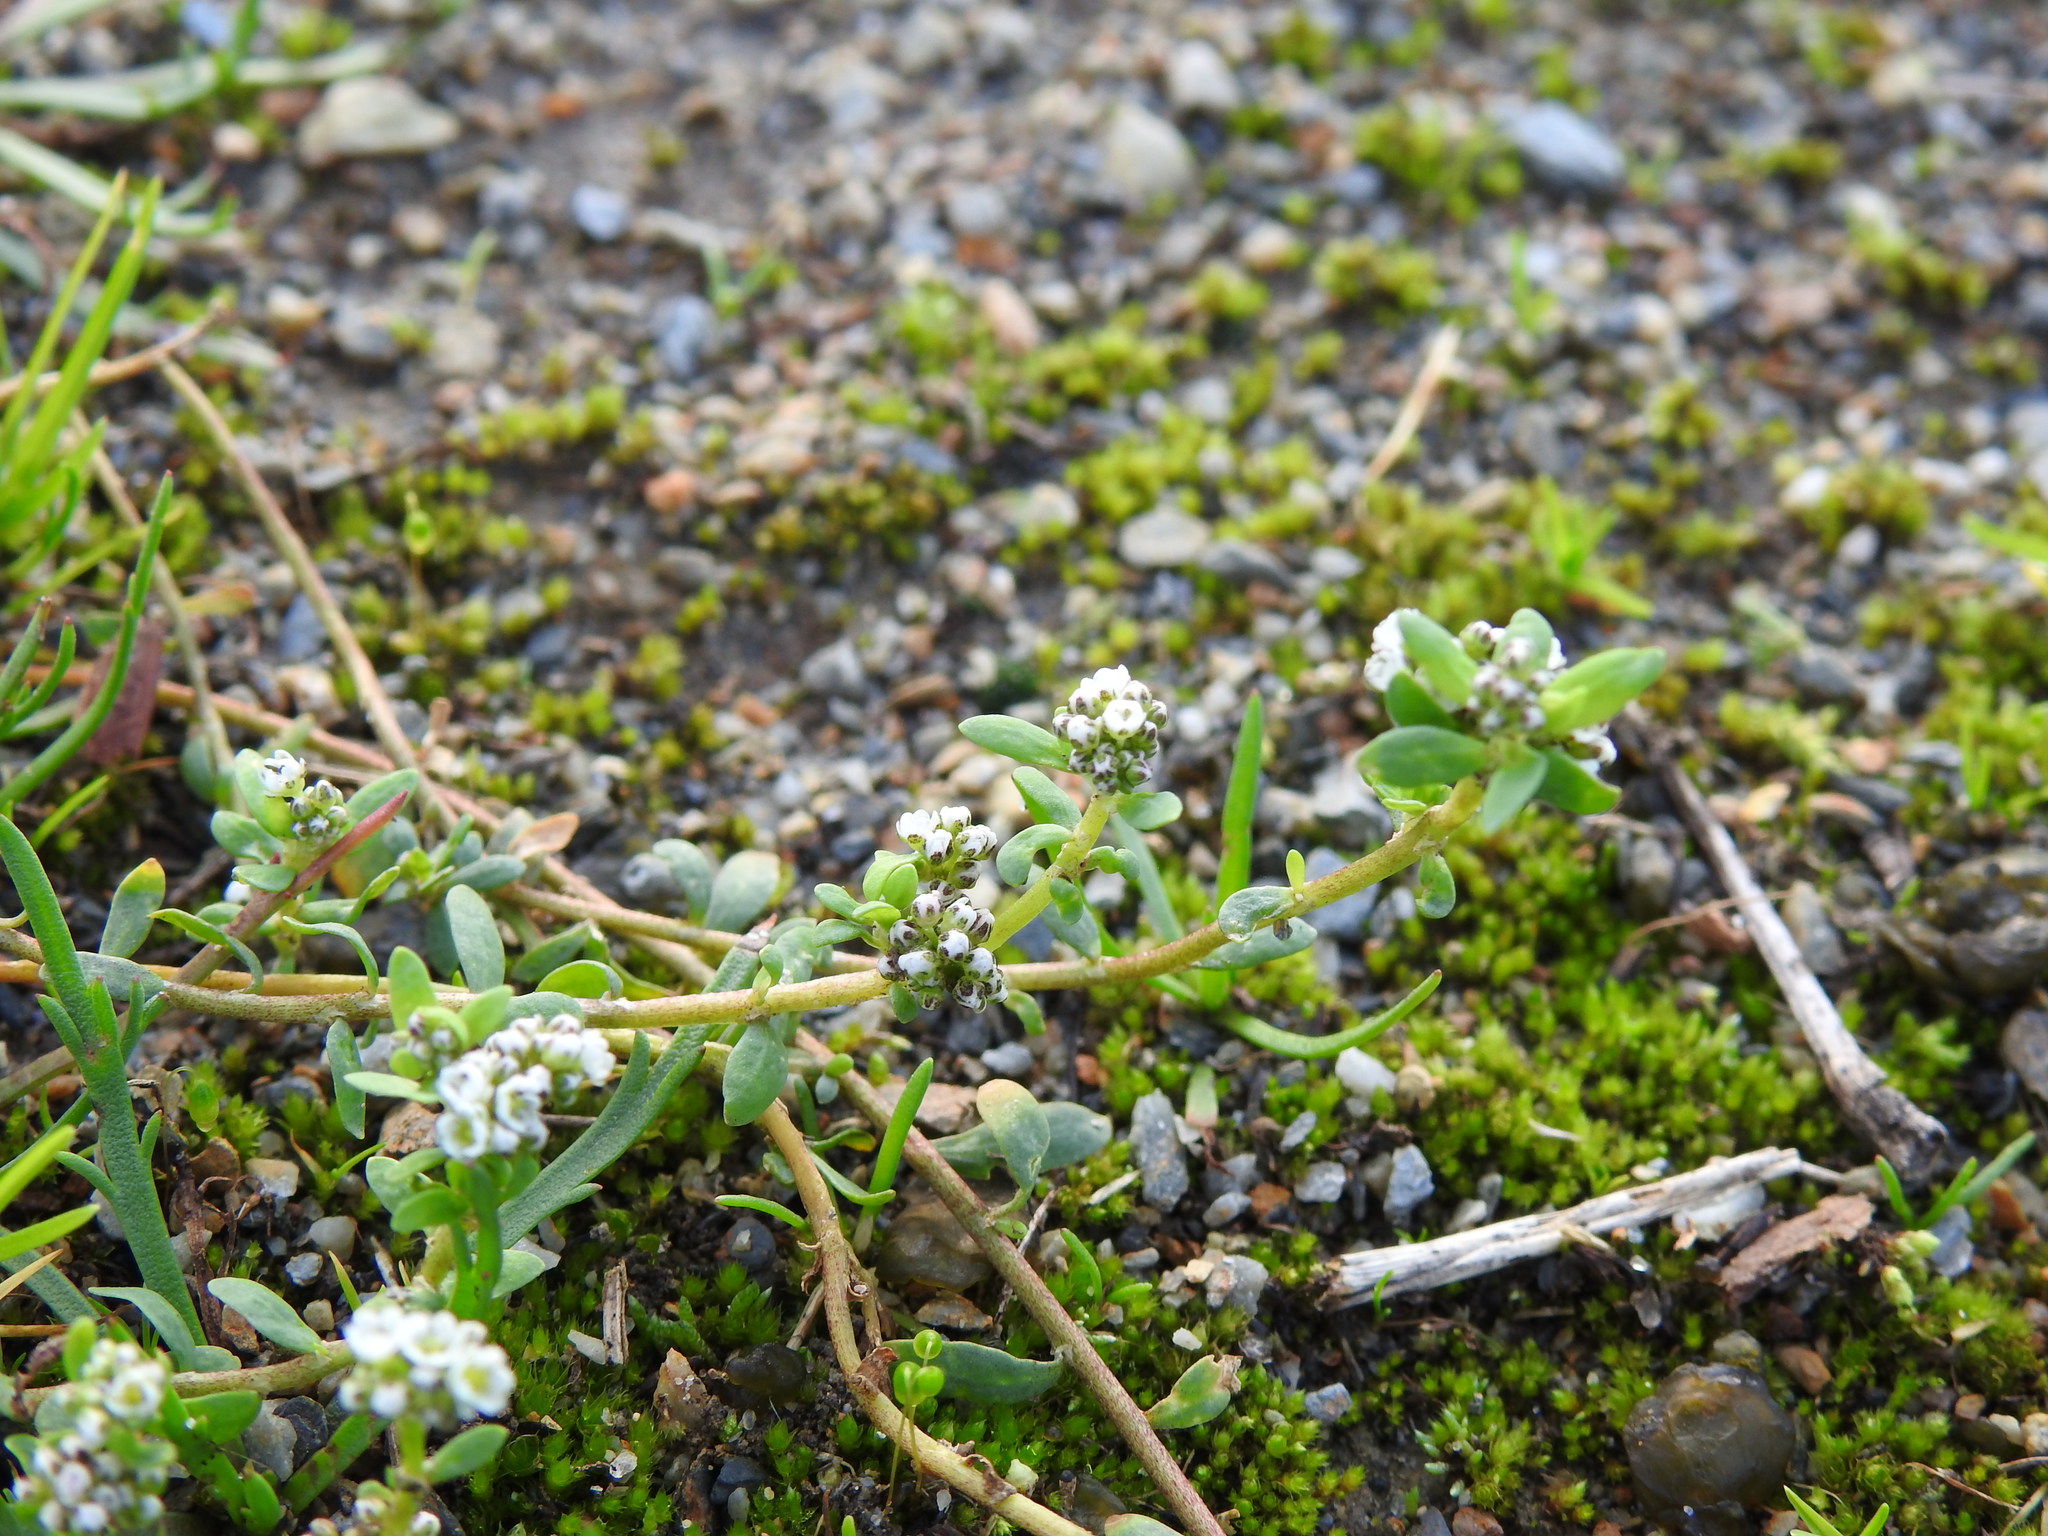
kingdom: Plantae
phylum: Tracheophyta
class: Magnoliopsida
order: Caryophyllales
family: Caryophyllaceae
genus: Corrigiola
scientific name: Corrigiola litoralis
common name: Strapwort
